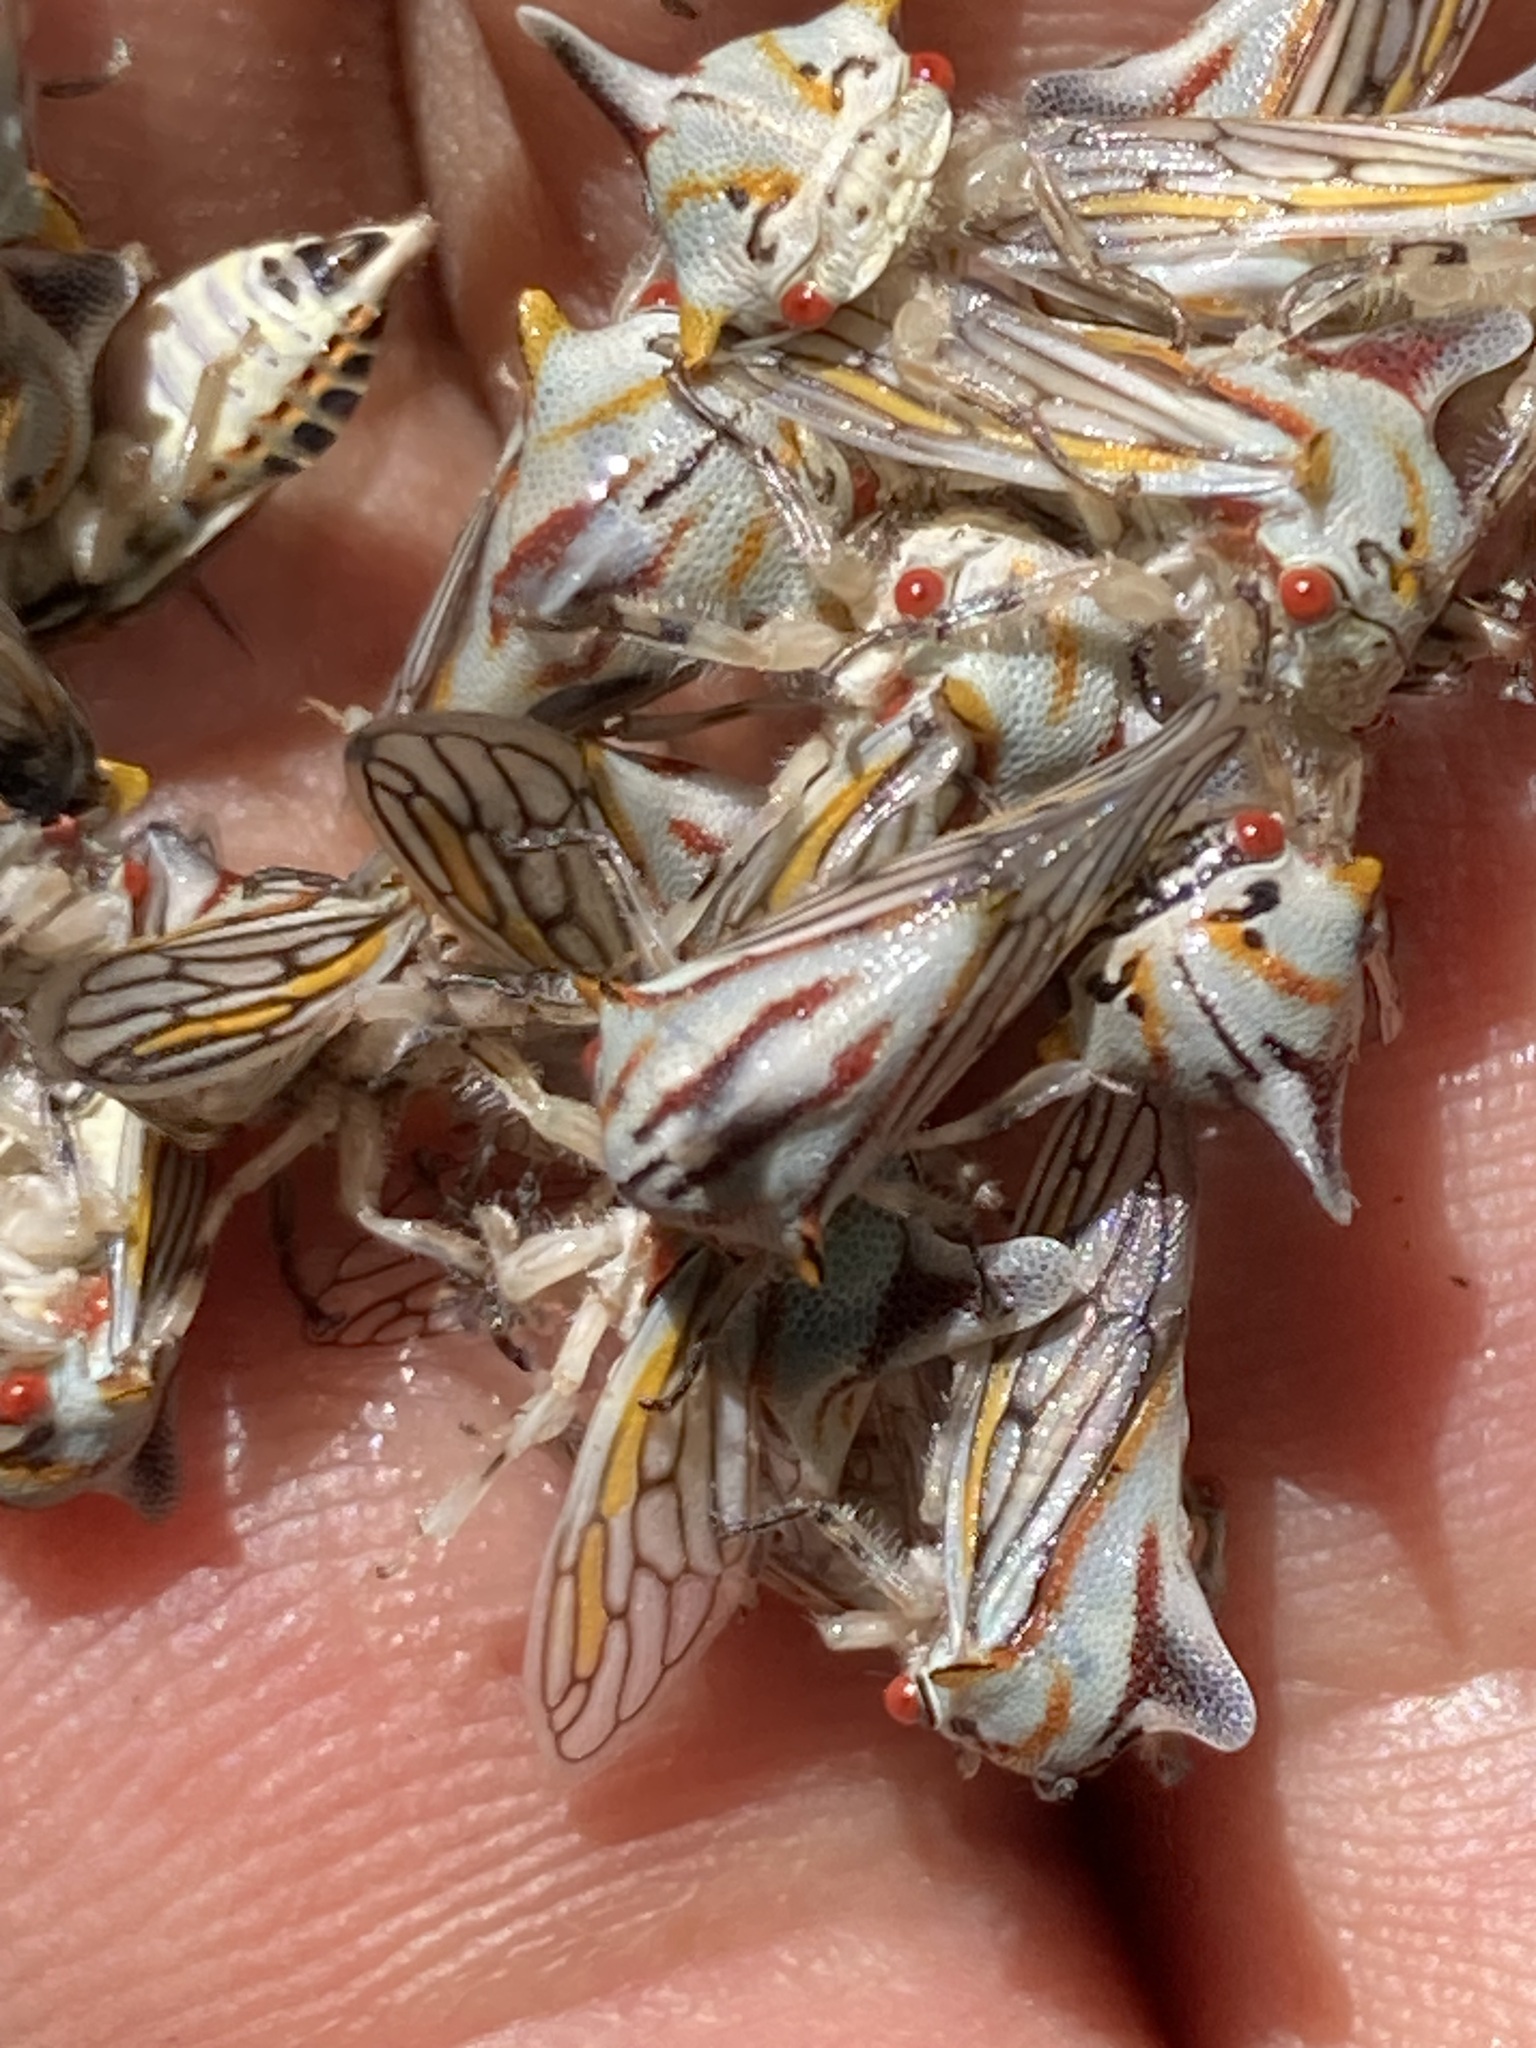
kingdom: Animalia
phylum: Arthropoda
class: Insecta
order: Hemiptera
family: Membracidae
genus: Platycotis
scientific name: Platycotis tuberculata
